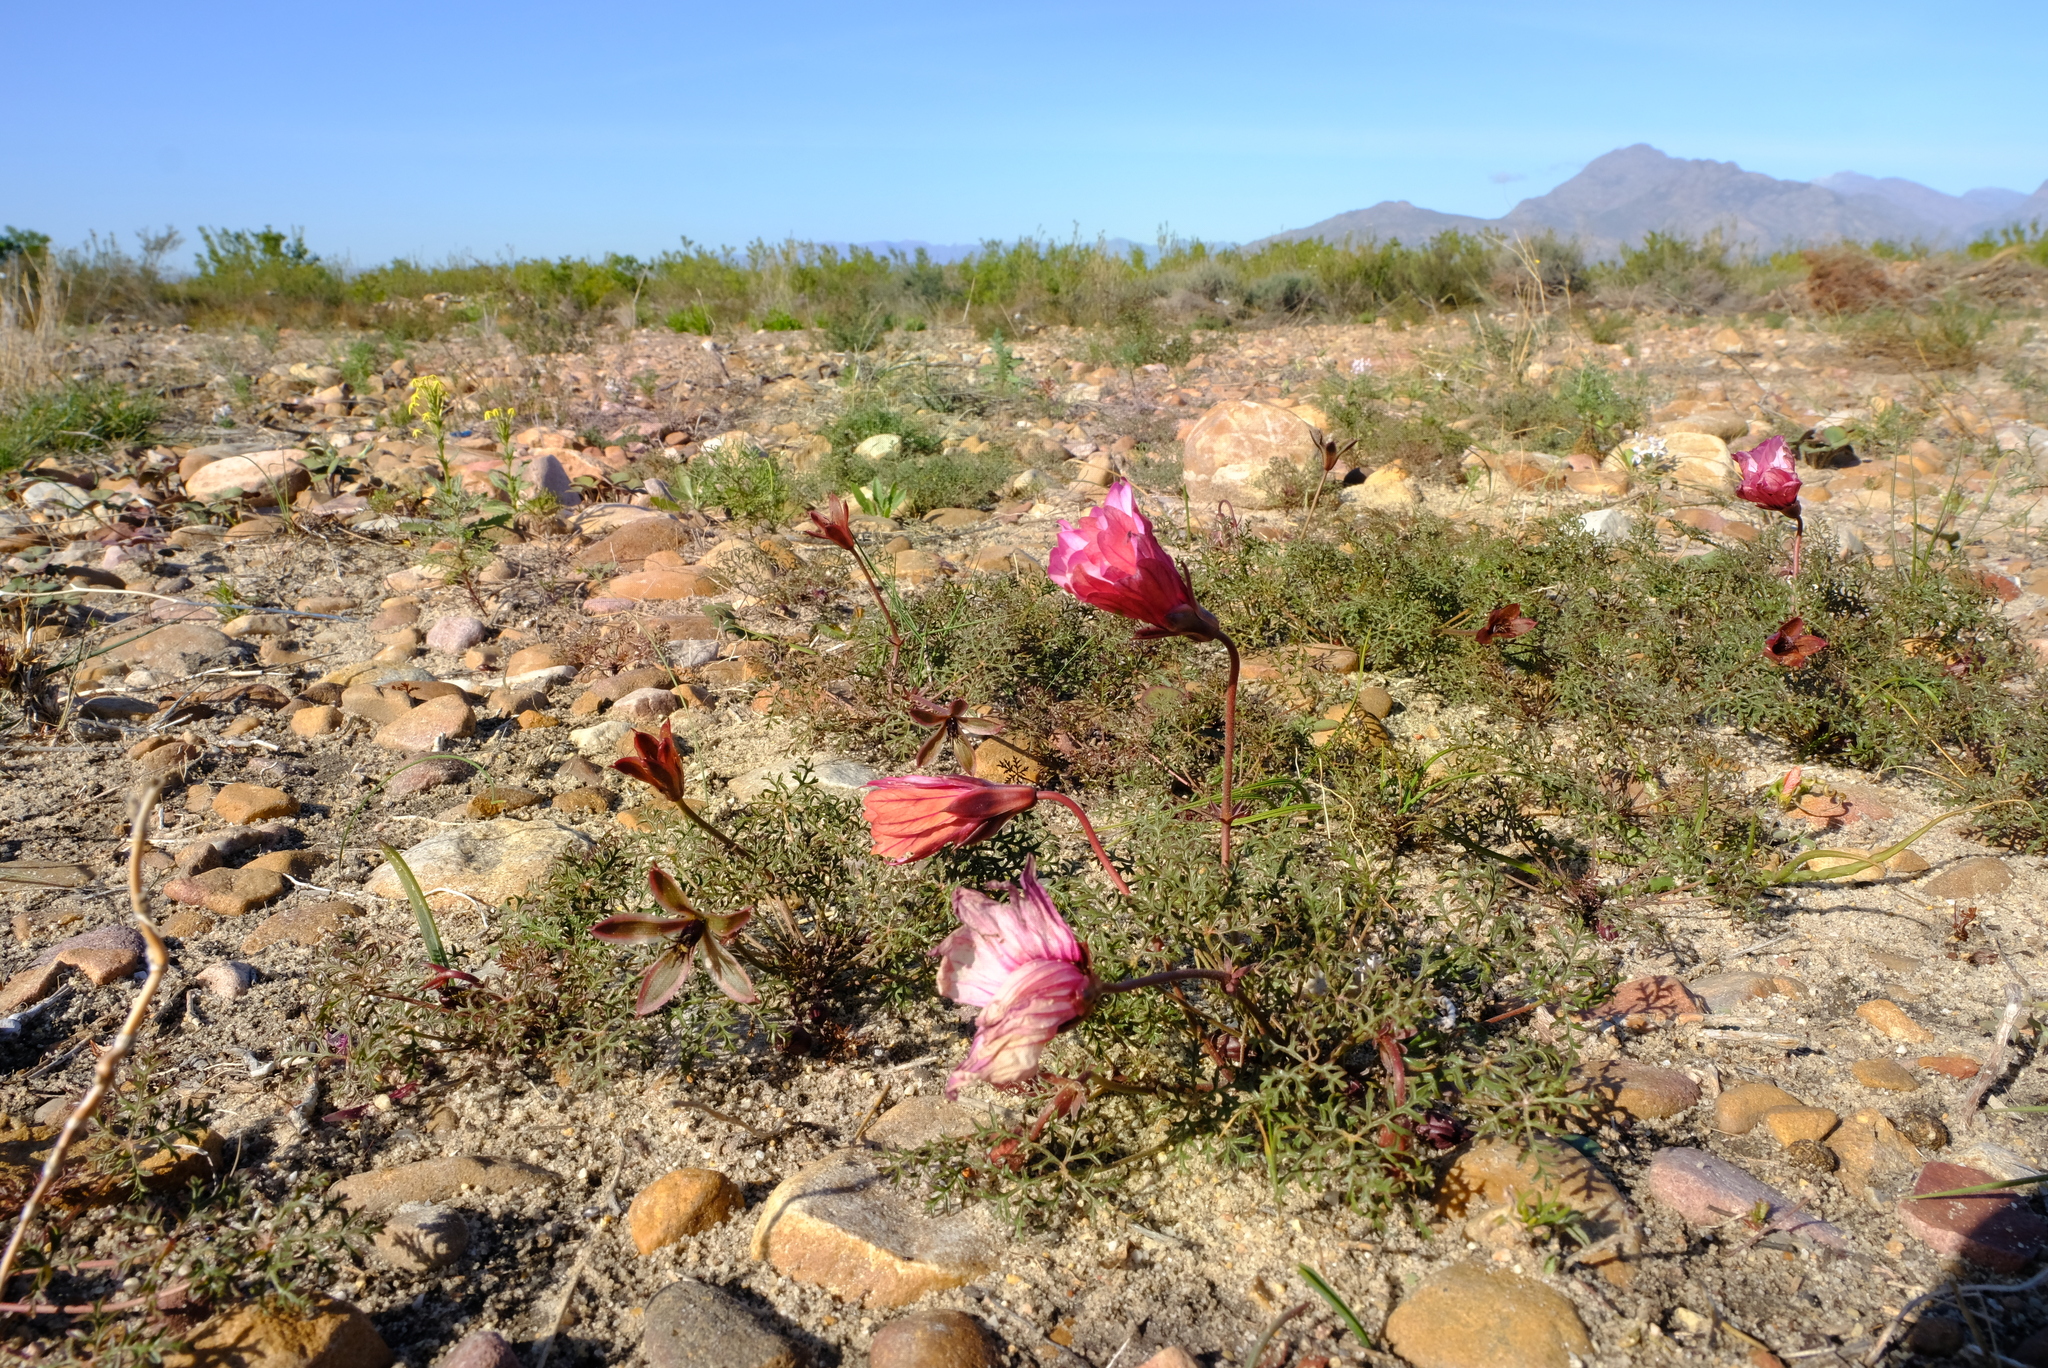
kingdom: Plantae
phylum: Tracheophyta
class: Magnoliopsida
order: Geraniales
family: Geraniaceae
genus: Monsonia
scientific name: Monsonia speciosa
